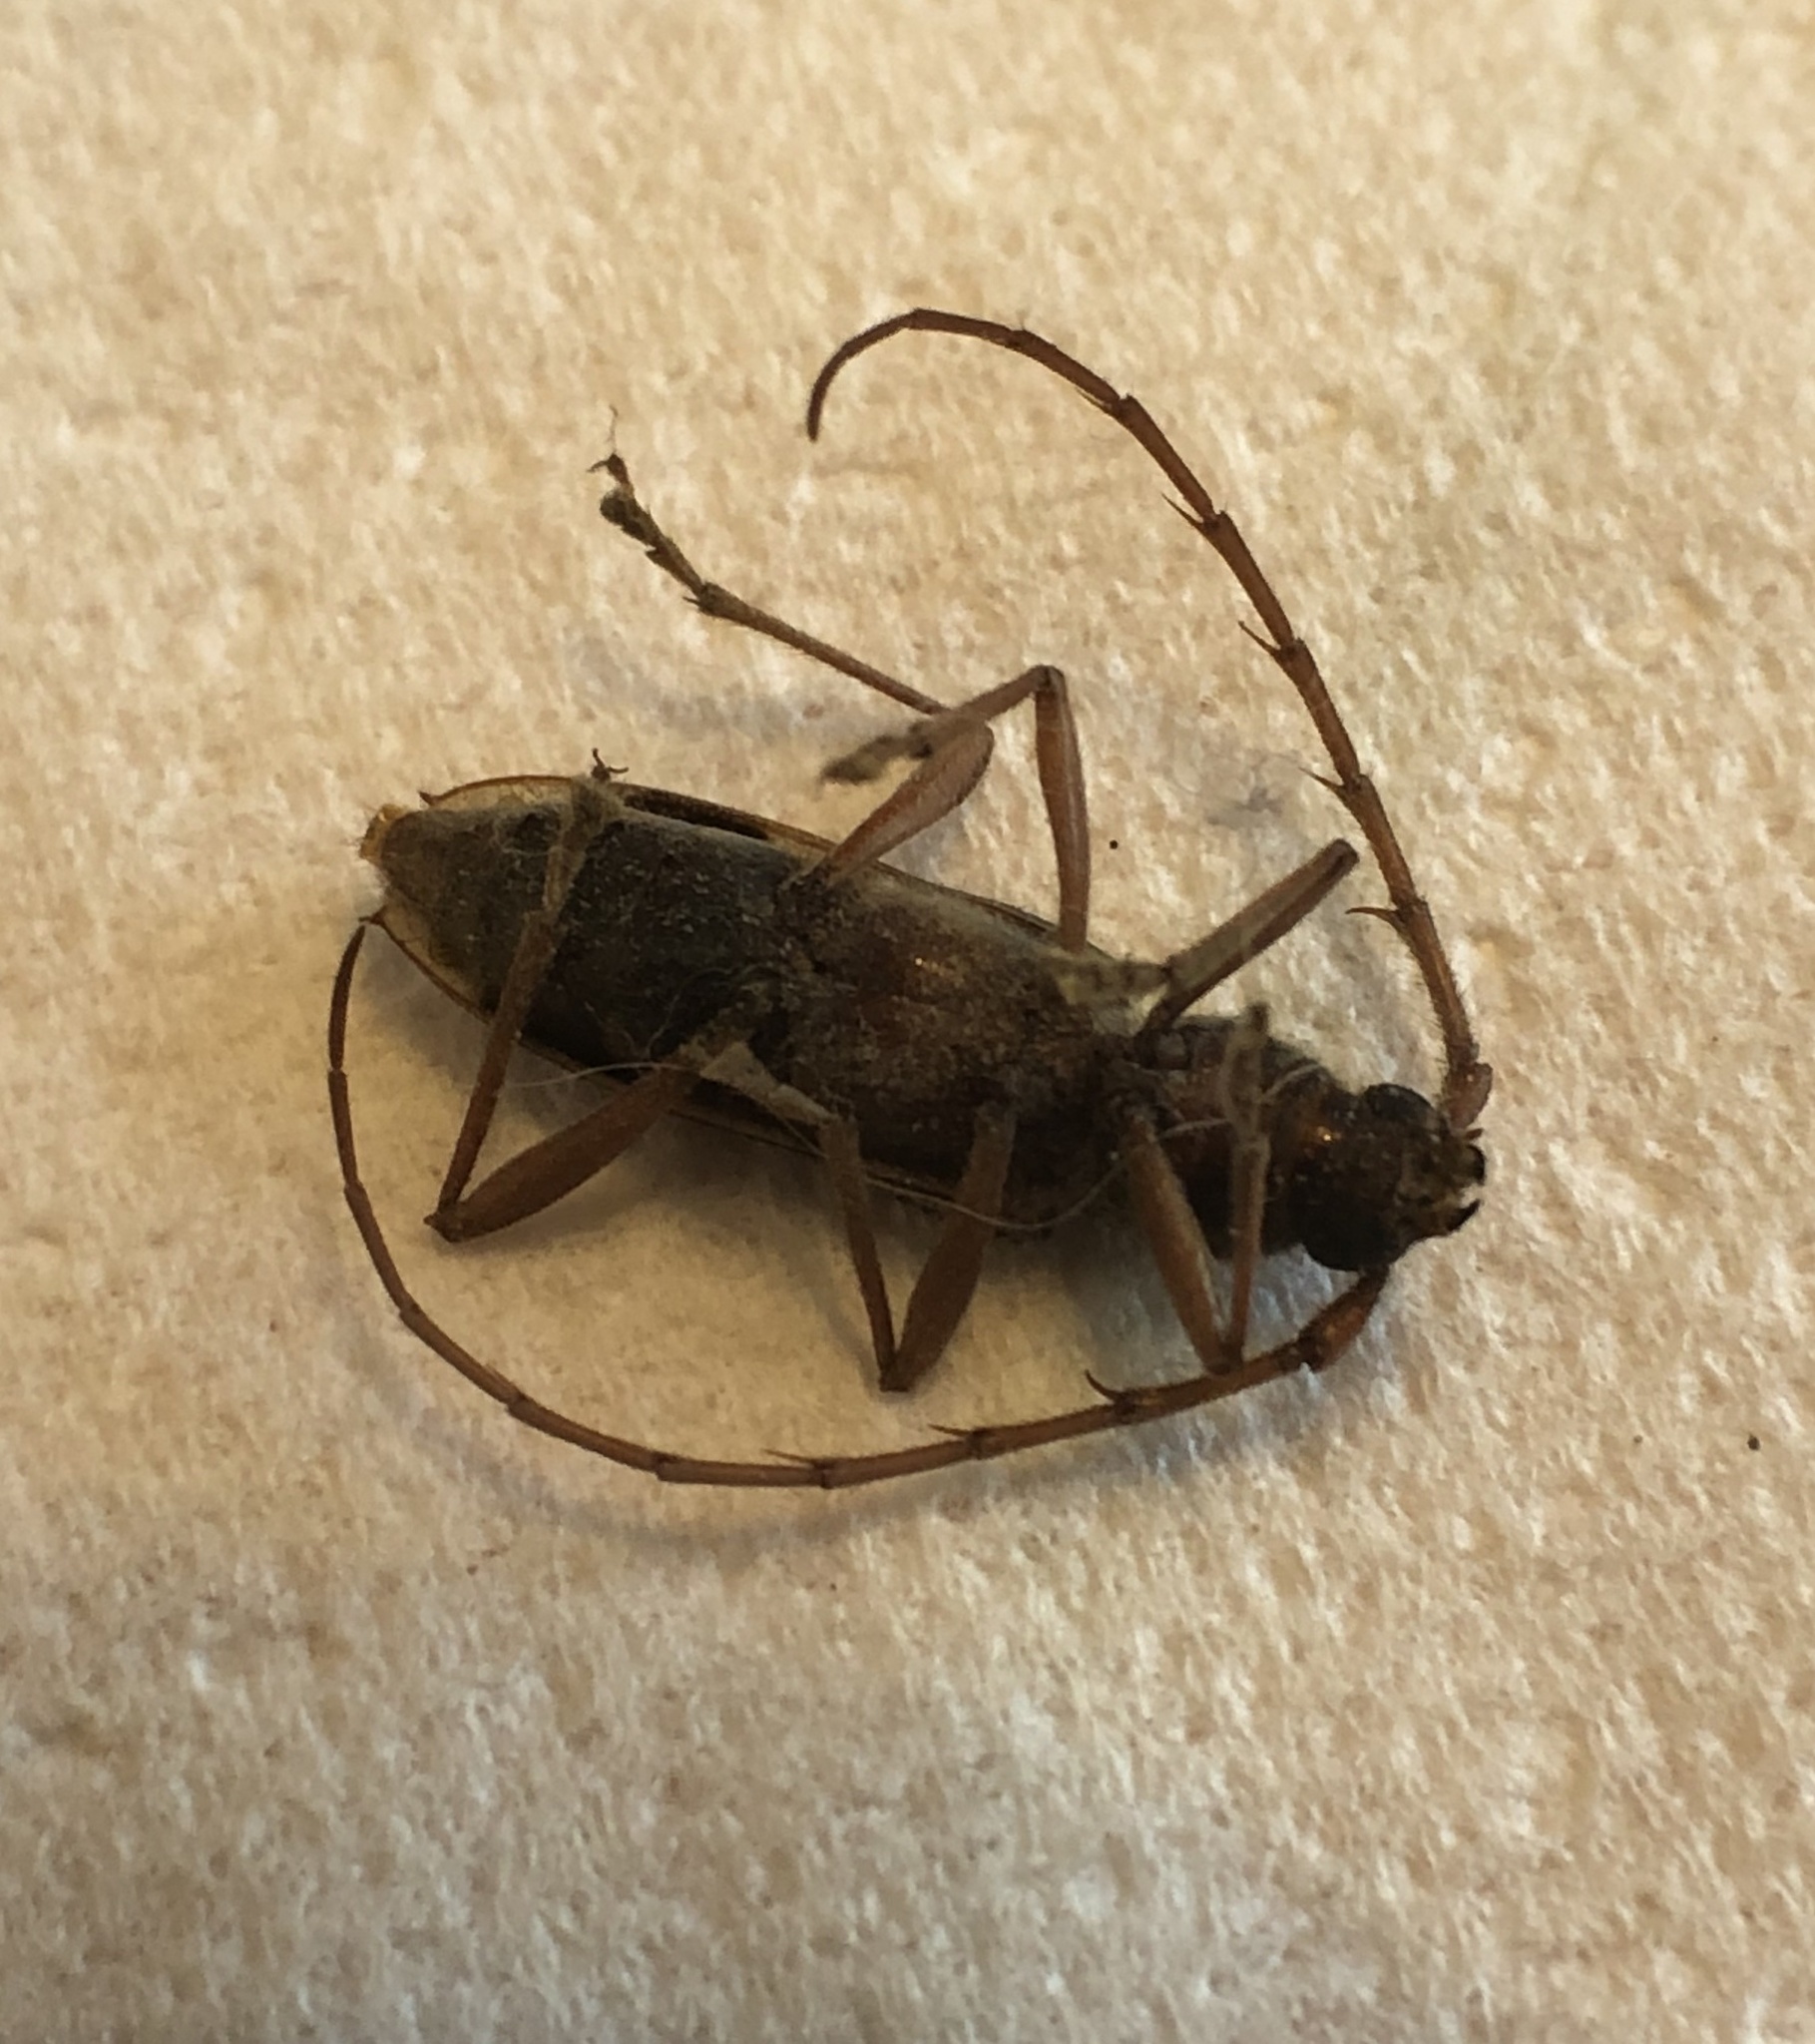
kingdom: Animalia
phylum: Arthropoda
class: Insecta
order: Coleoptera
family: Cerambycidae
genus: Phoracantha
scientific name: Phoracantha recurva
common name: Eucalyptus longhorned borer
